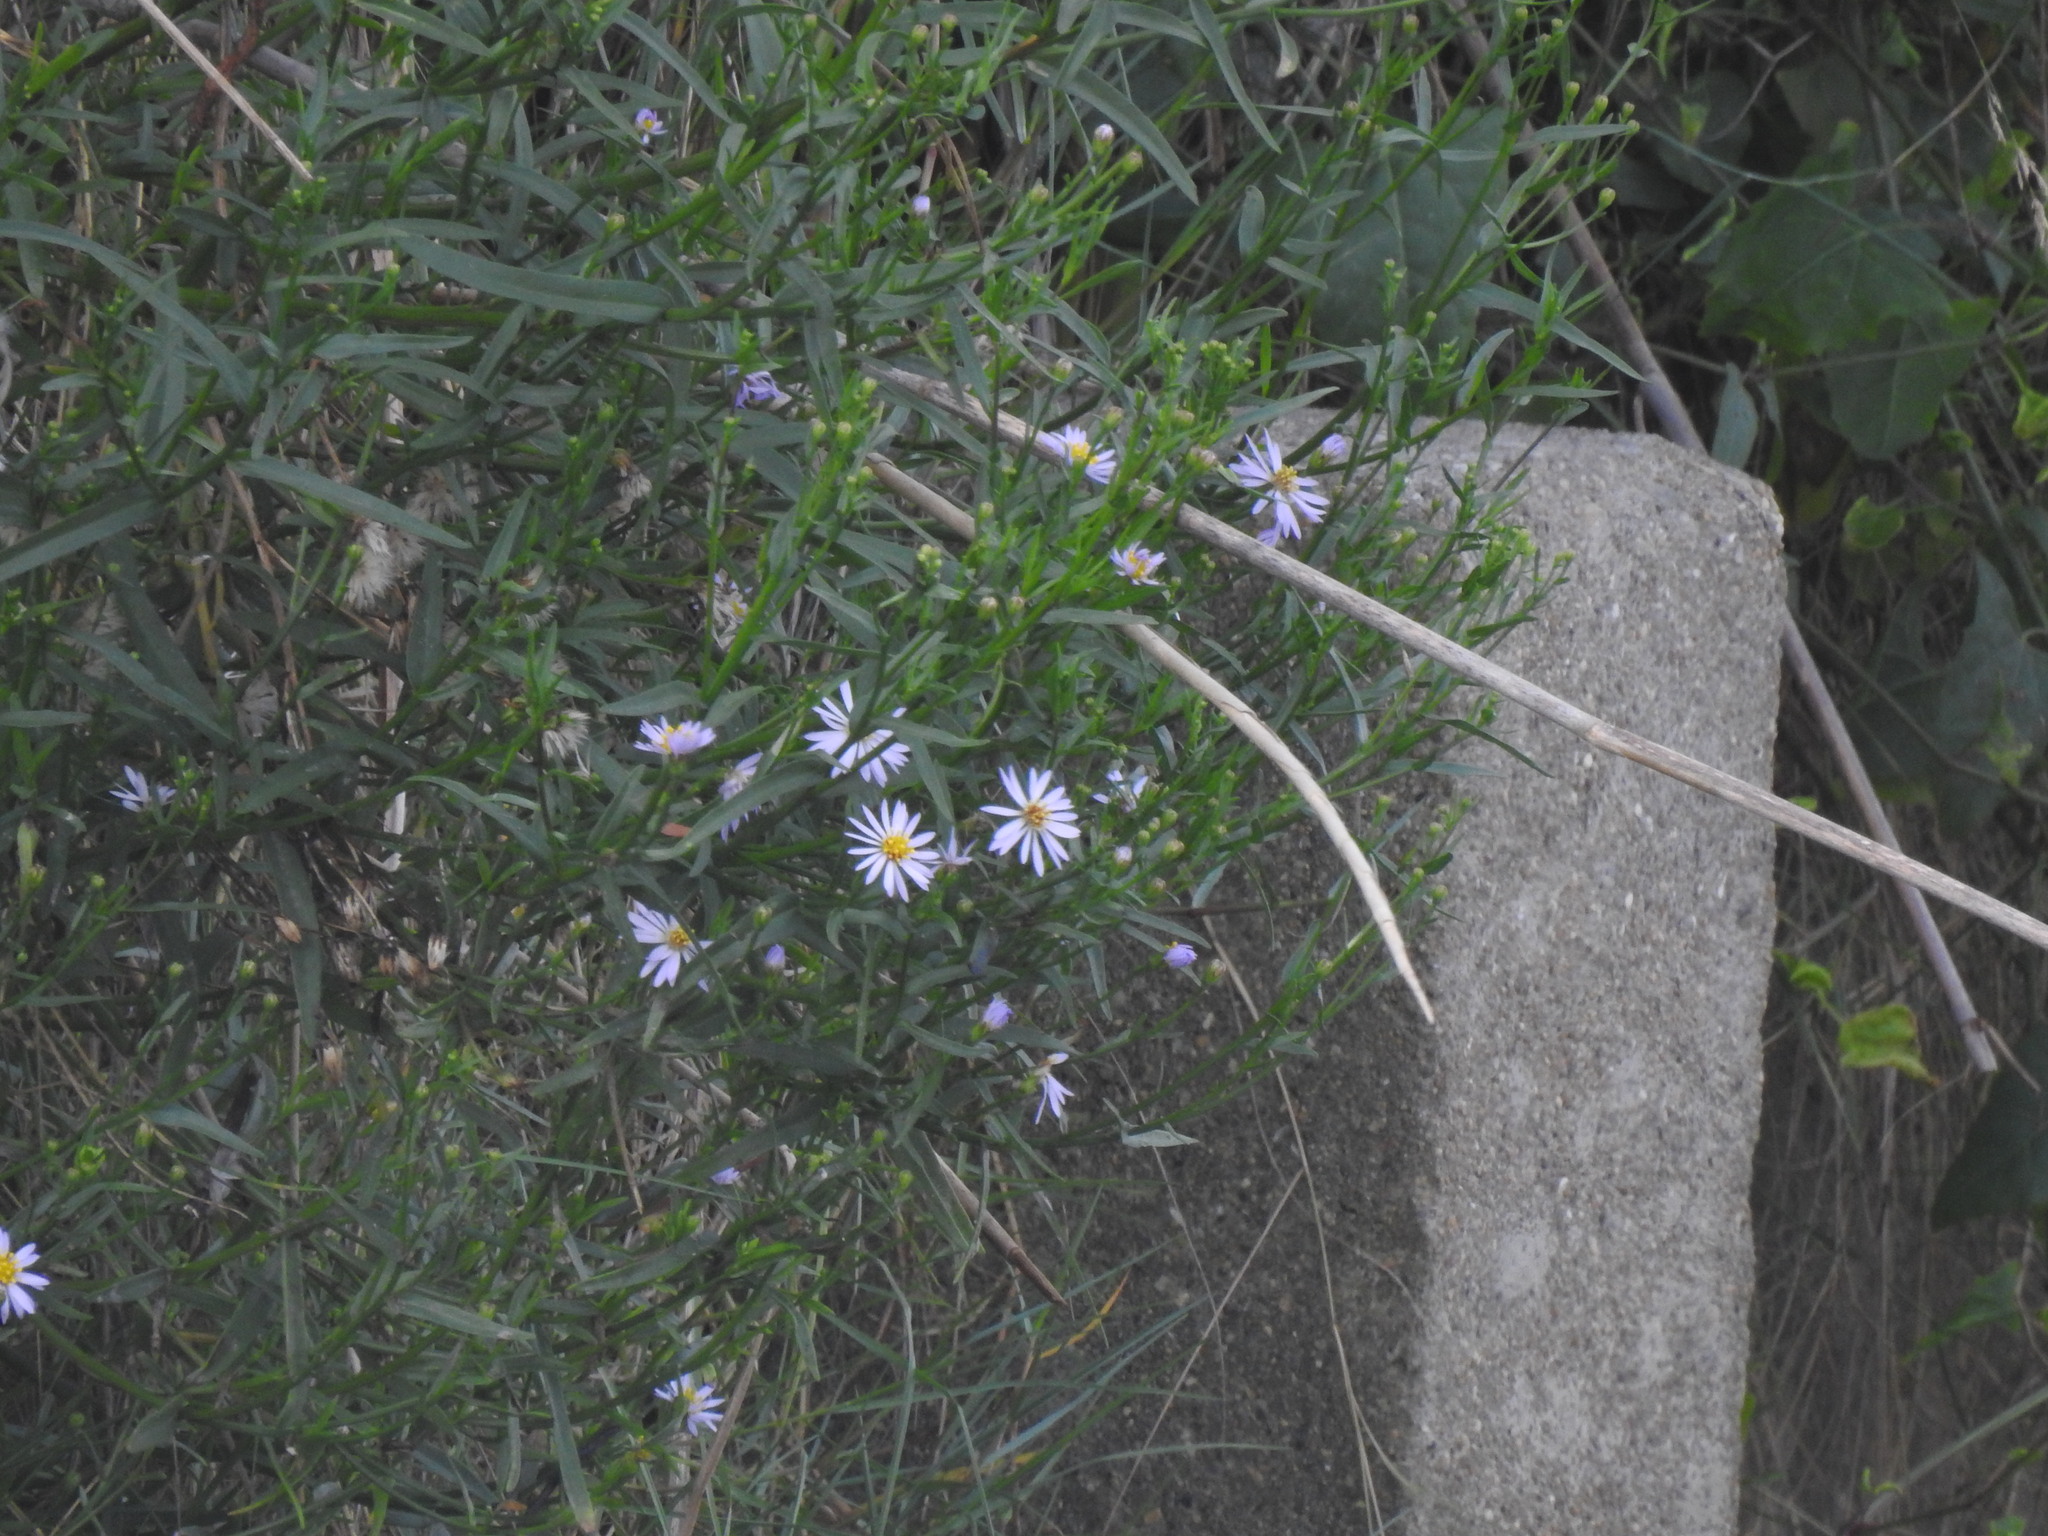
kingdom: Plantae
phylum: Tracheophyta
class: Magnoliopsida
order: Asterales
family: Asteraceae
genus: Tripolium
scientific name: Tripolium pannonicum
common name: Sea aster
